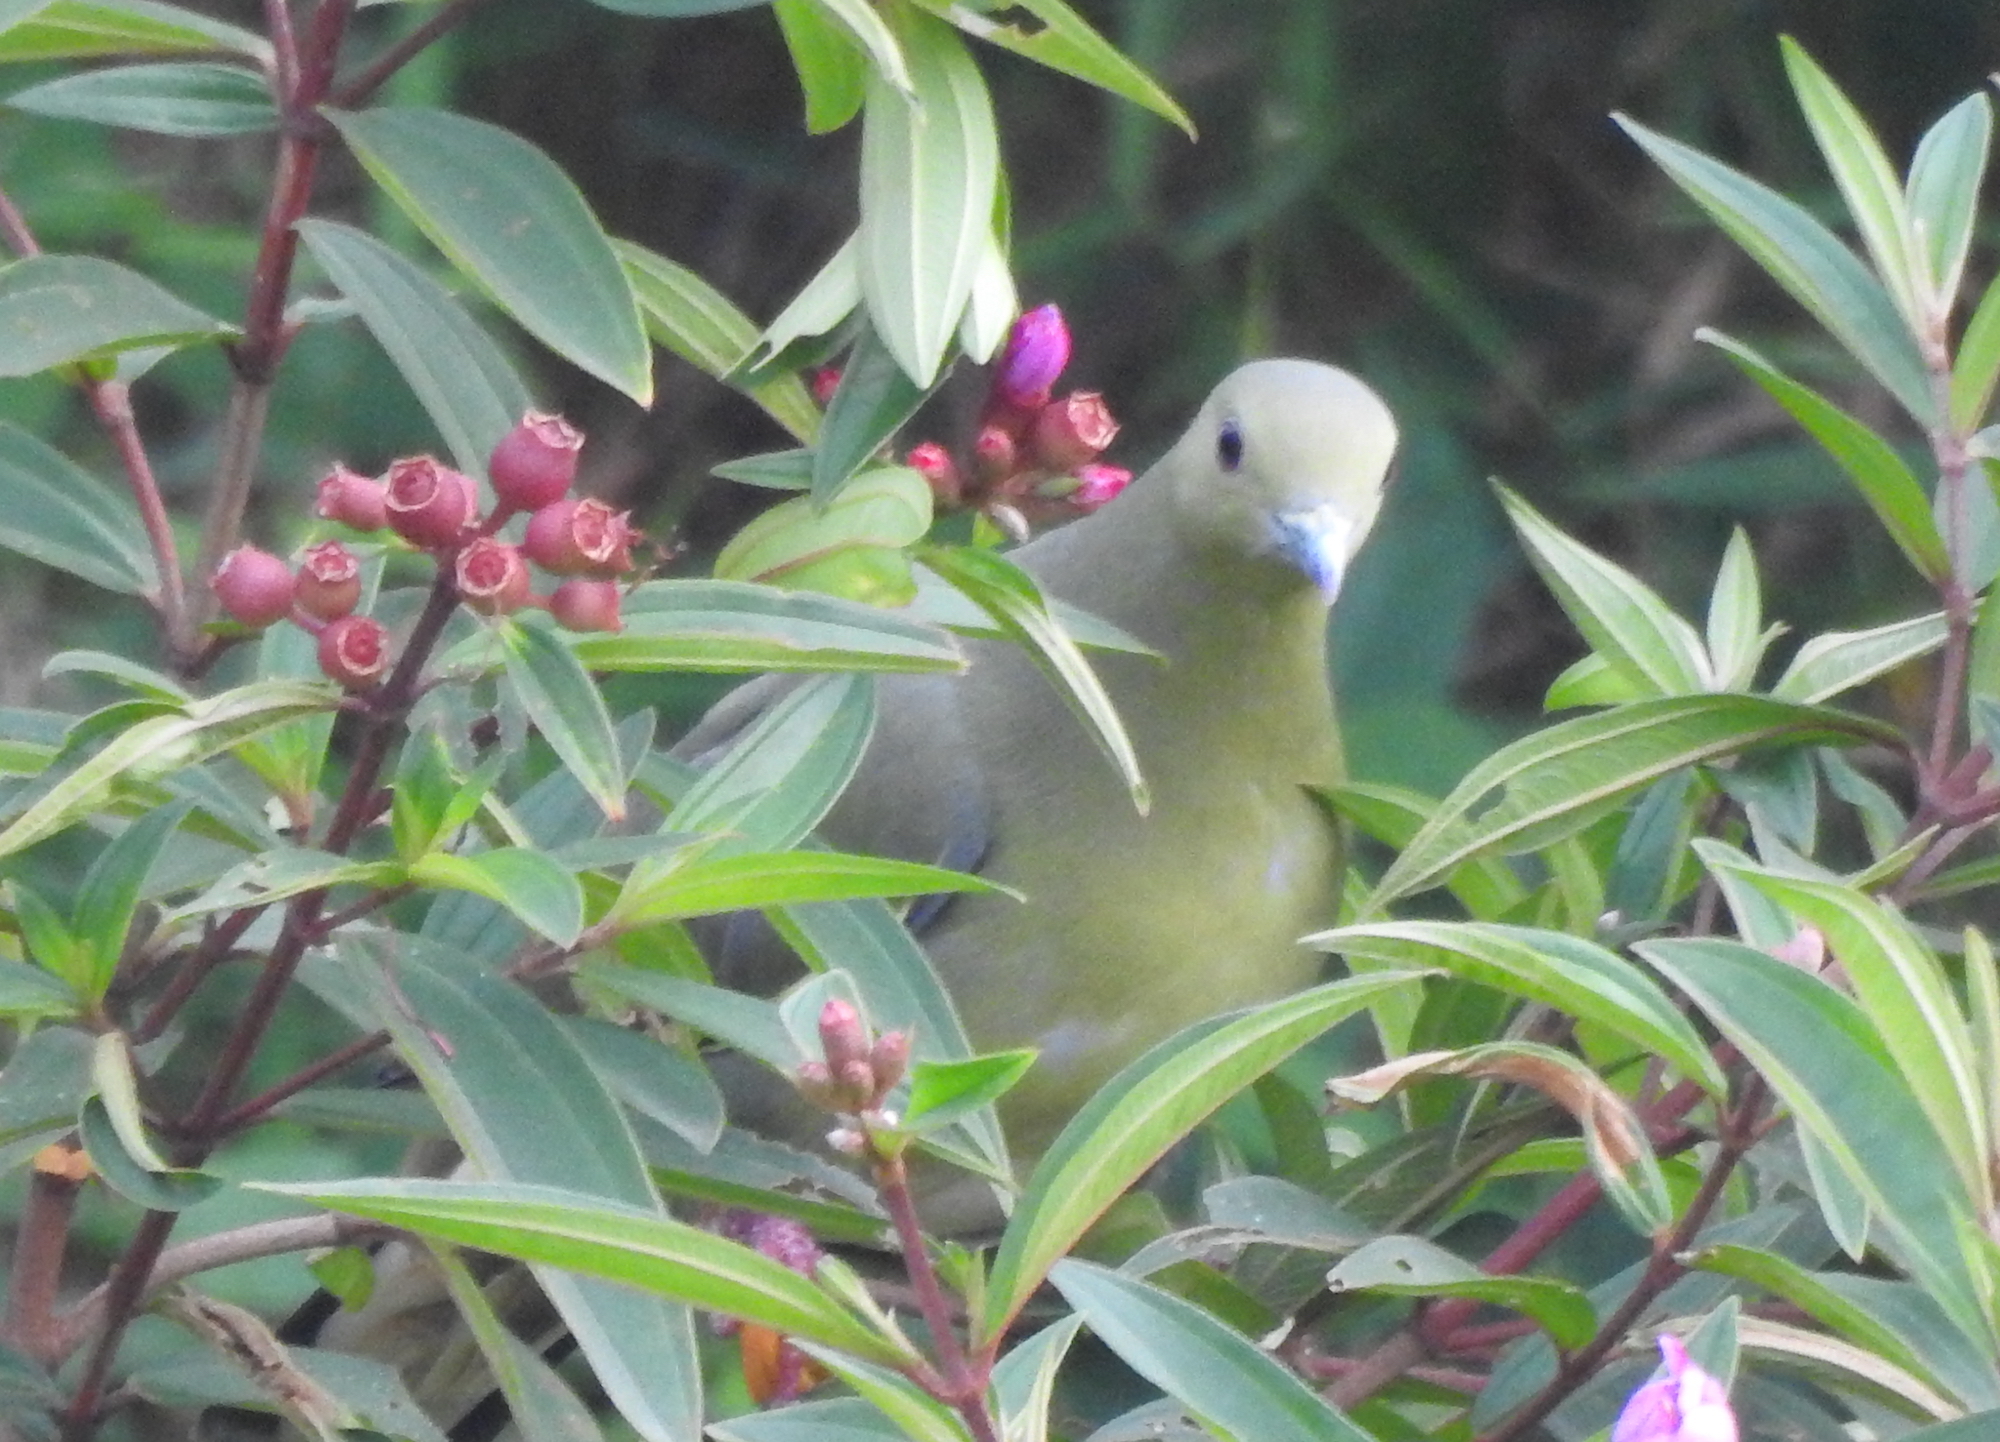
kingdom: Animalia
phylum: Chordata
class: Aves
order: Columbiformes
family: Columbidae
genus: Treron
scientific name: Treron vernans
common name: Pink-necked green pigeon
